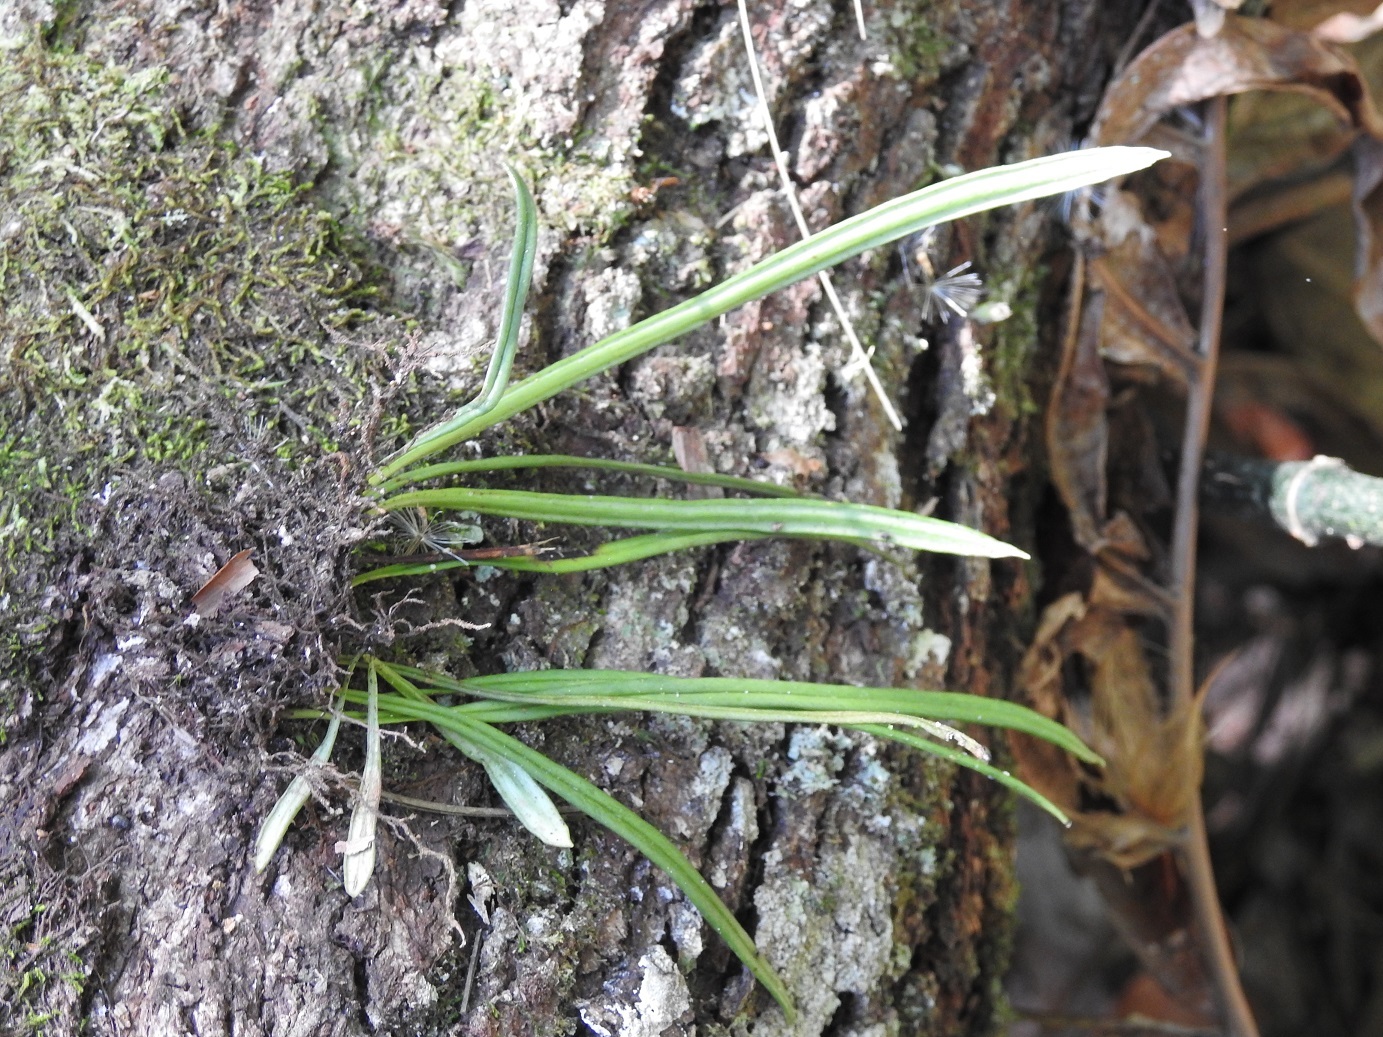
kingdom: Plantae
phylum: Tracheophyta
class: Polypodiopsida
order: Polypodiales
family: Polypodiaceae
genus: Cochlidium
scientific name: Cochlidium linearifolium
